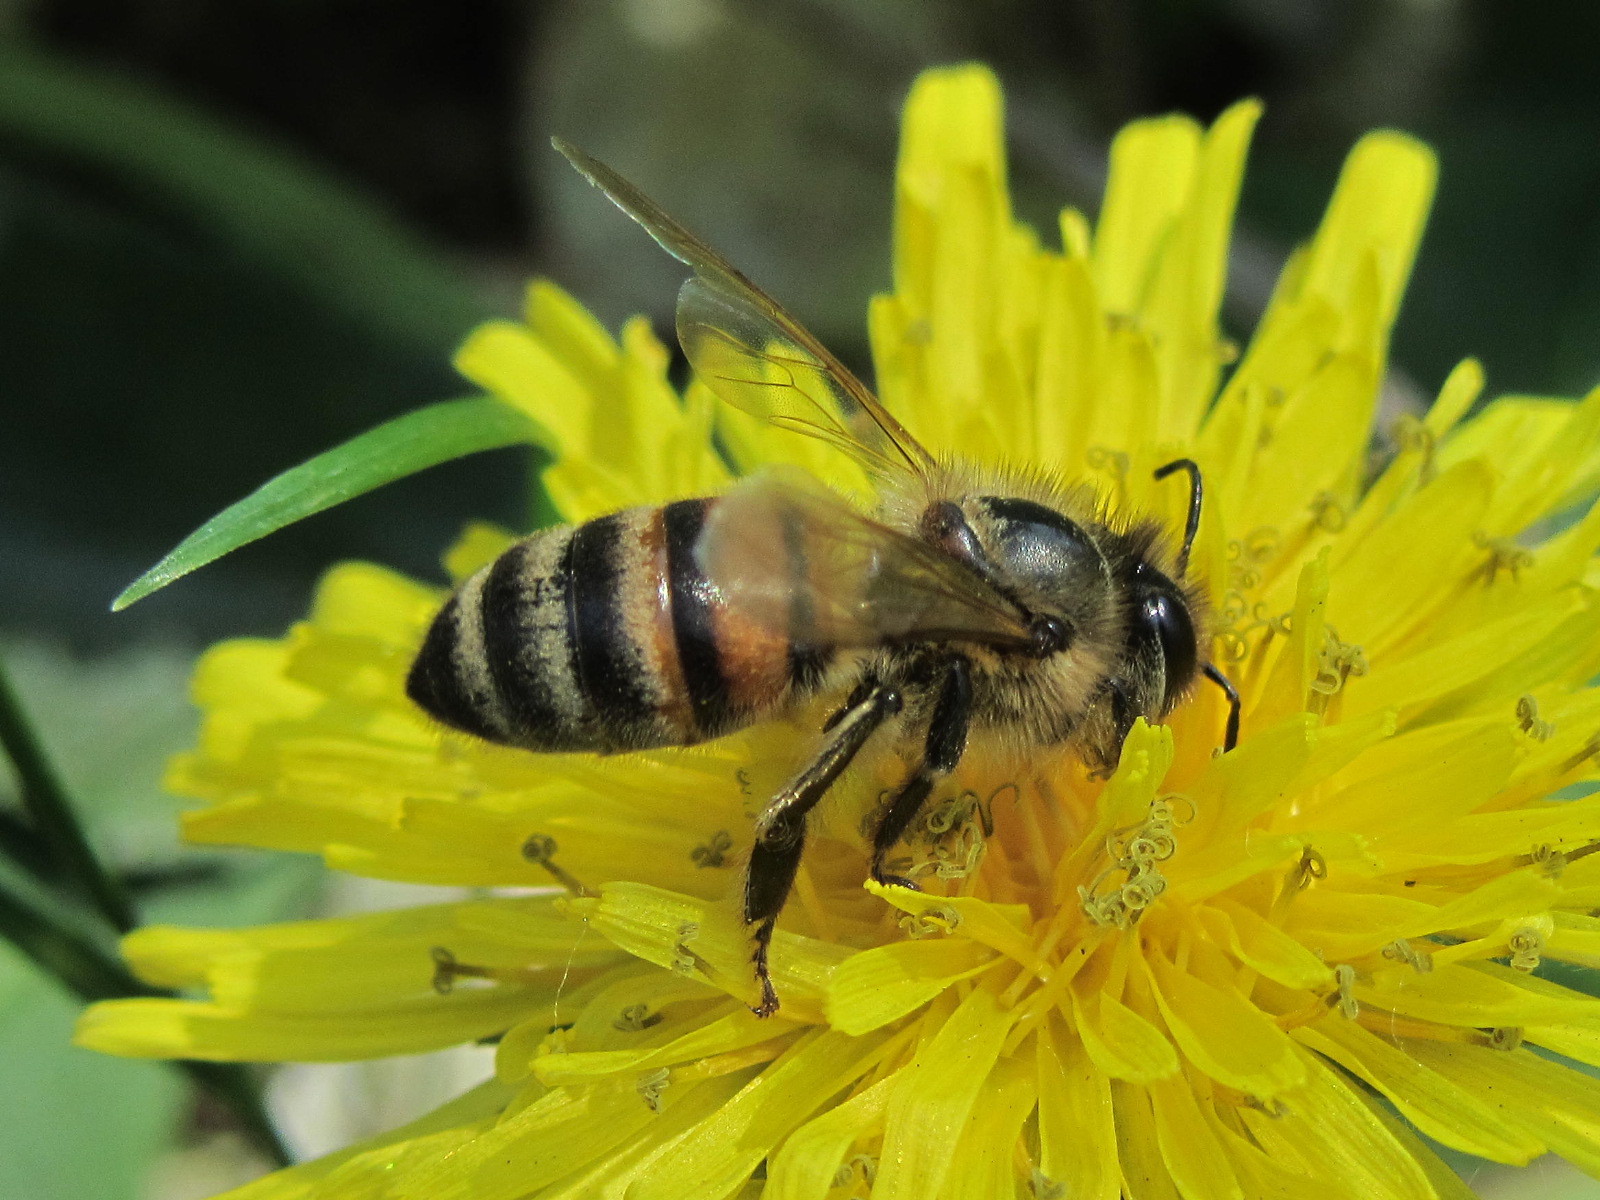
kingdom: Animalia
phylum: Arthropoda
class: Insecta
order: Hymenoptera
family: Apidae
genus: Apis
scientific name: Apis mellifera
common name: Honey bee
